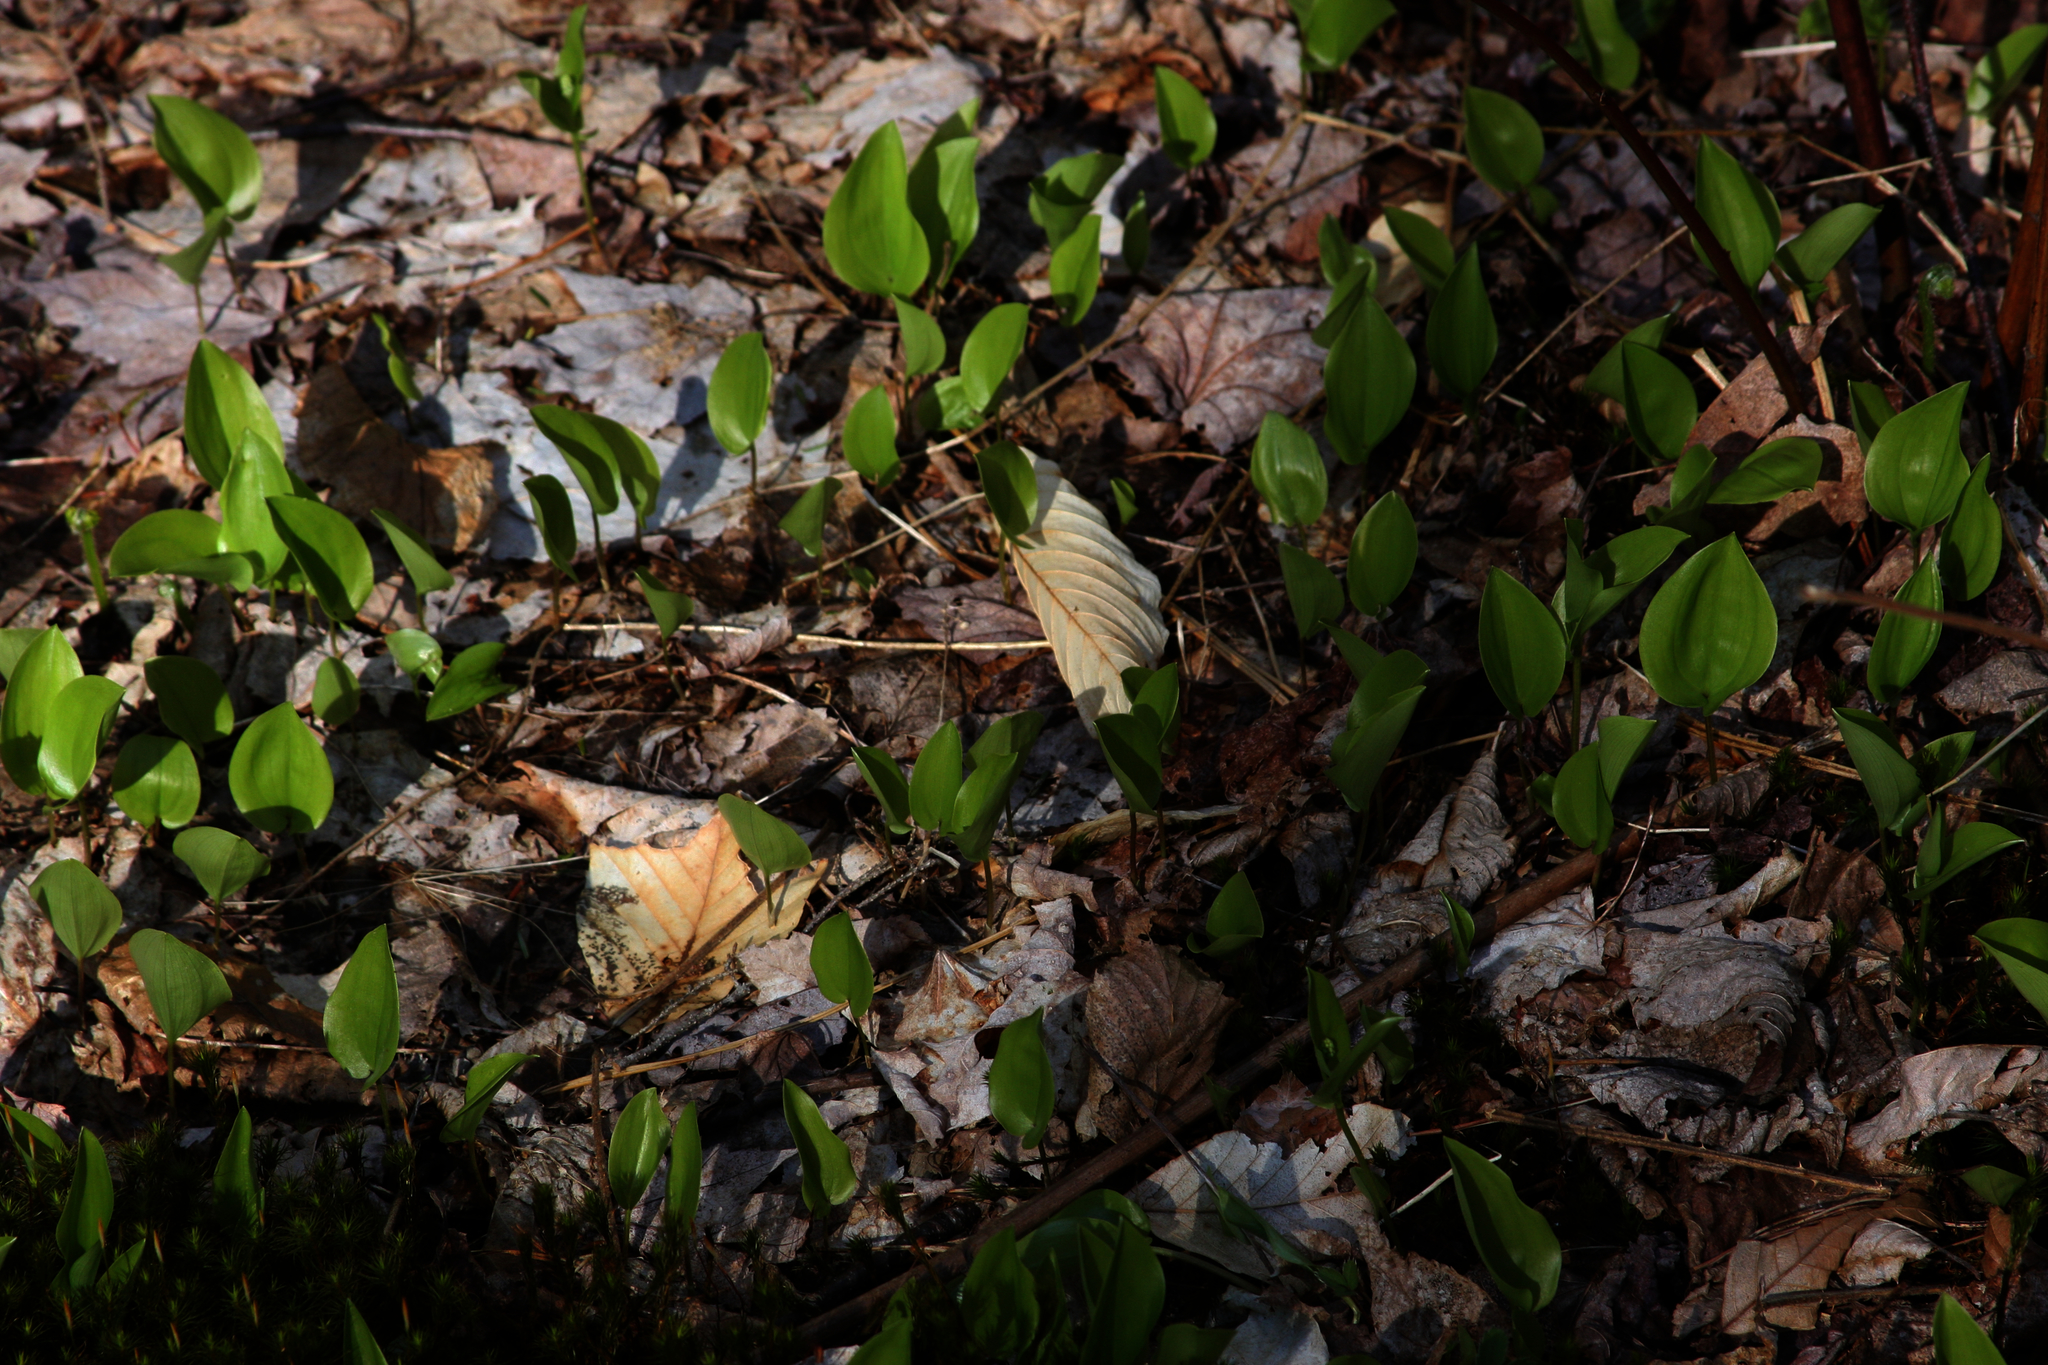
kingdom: Plantae
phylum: Tracheophyta
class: Liliopsida
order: Asparagales
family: Asparagaceae
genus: Maianthemum
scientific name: Maianthemum canadense
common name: False lily-of-the-valley
